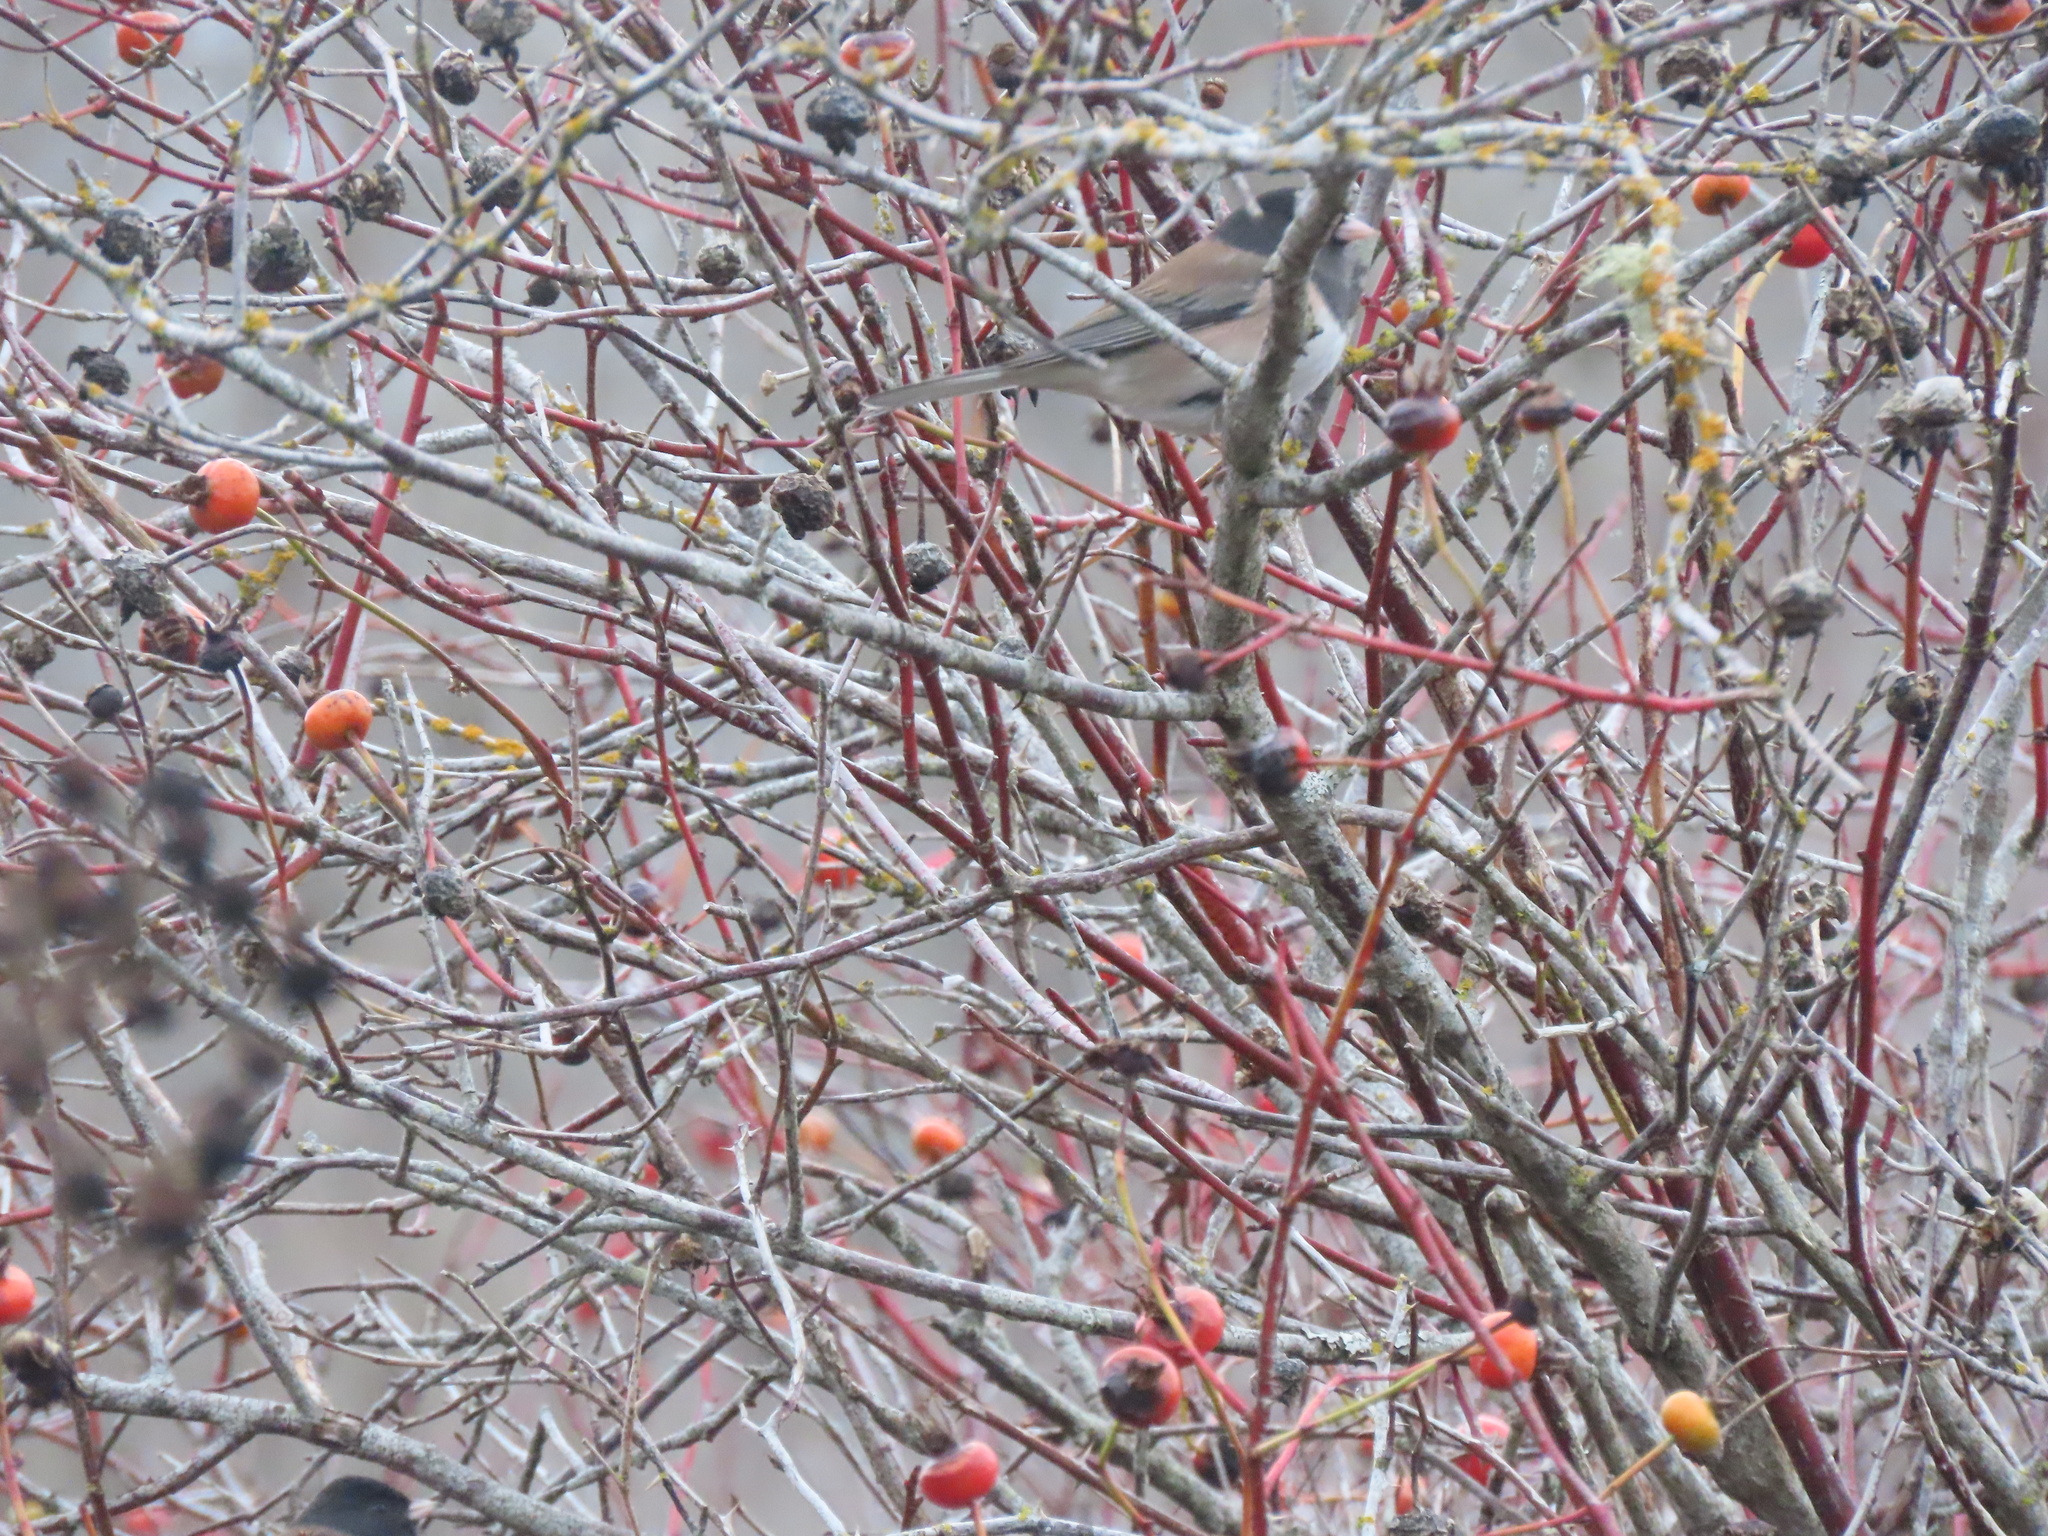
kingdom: Animalia
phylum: Chordata
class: Aves
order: Passeriformes
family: Passerellidae
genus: Junco
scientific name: Junco hyemalis
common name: Dark-eyed junco
